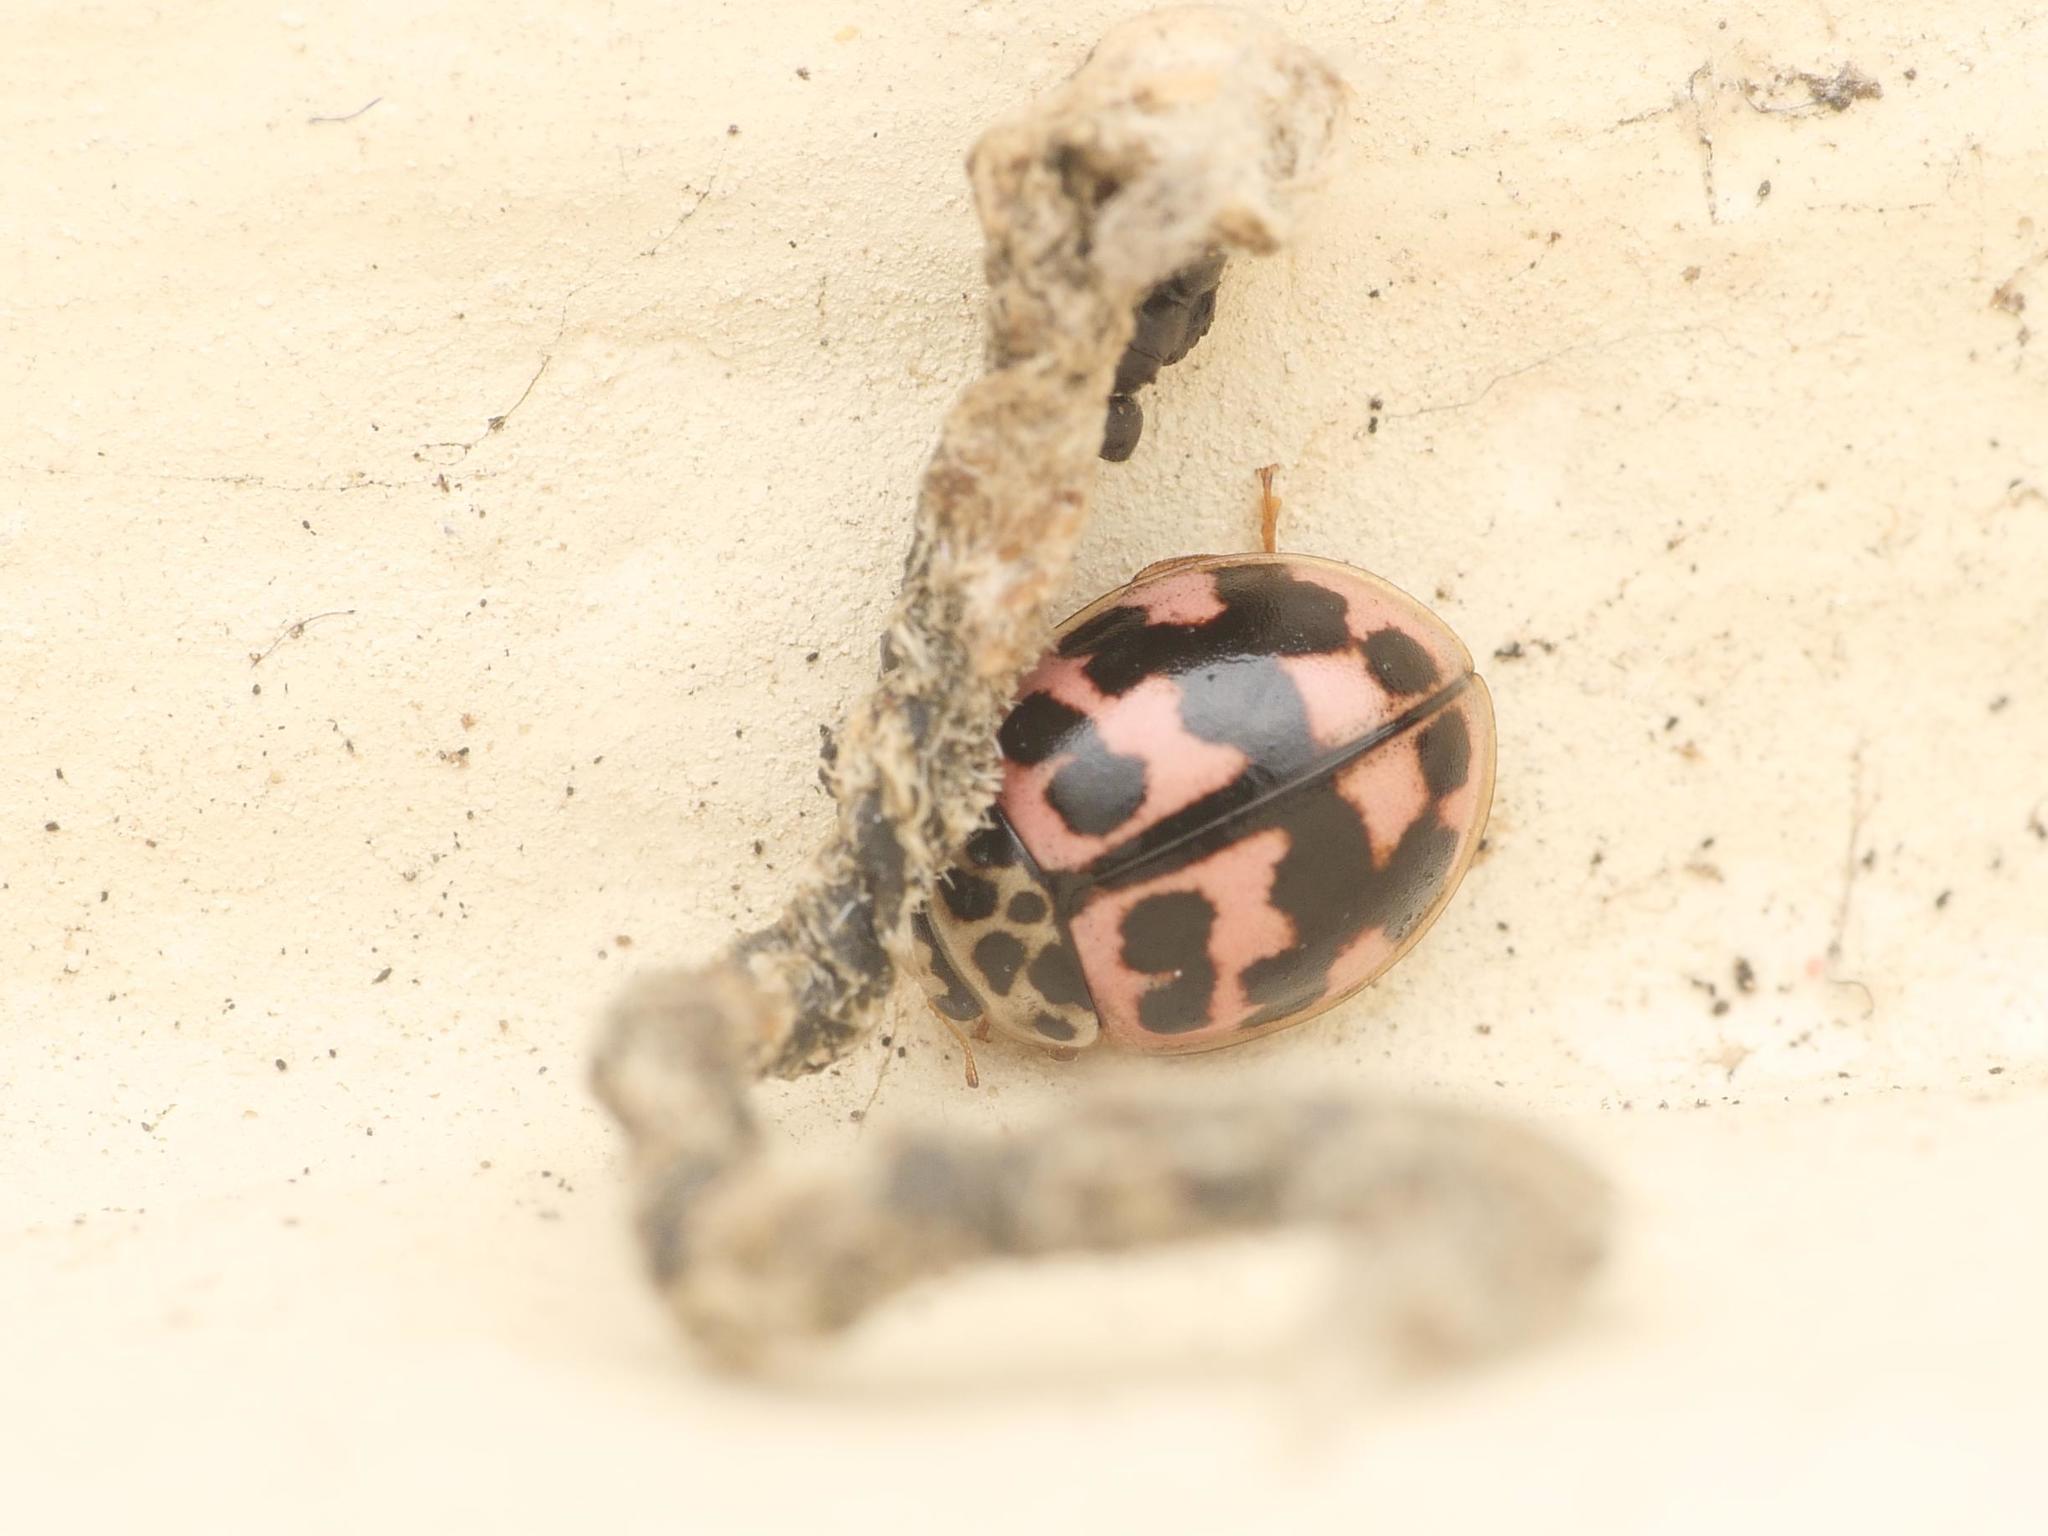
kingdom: Animalia
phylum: Arthropoda
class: Insecta
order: Coleoptera
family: Coccinellidae
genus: Oenopia
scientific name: Oenopia conglobata
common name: Ladybird beetle
